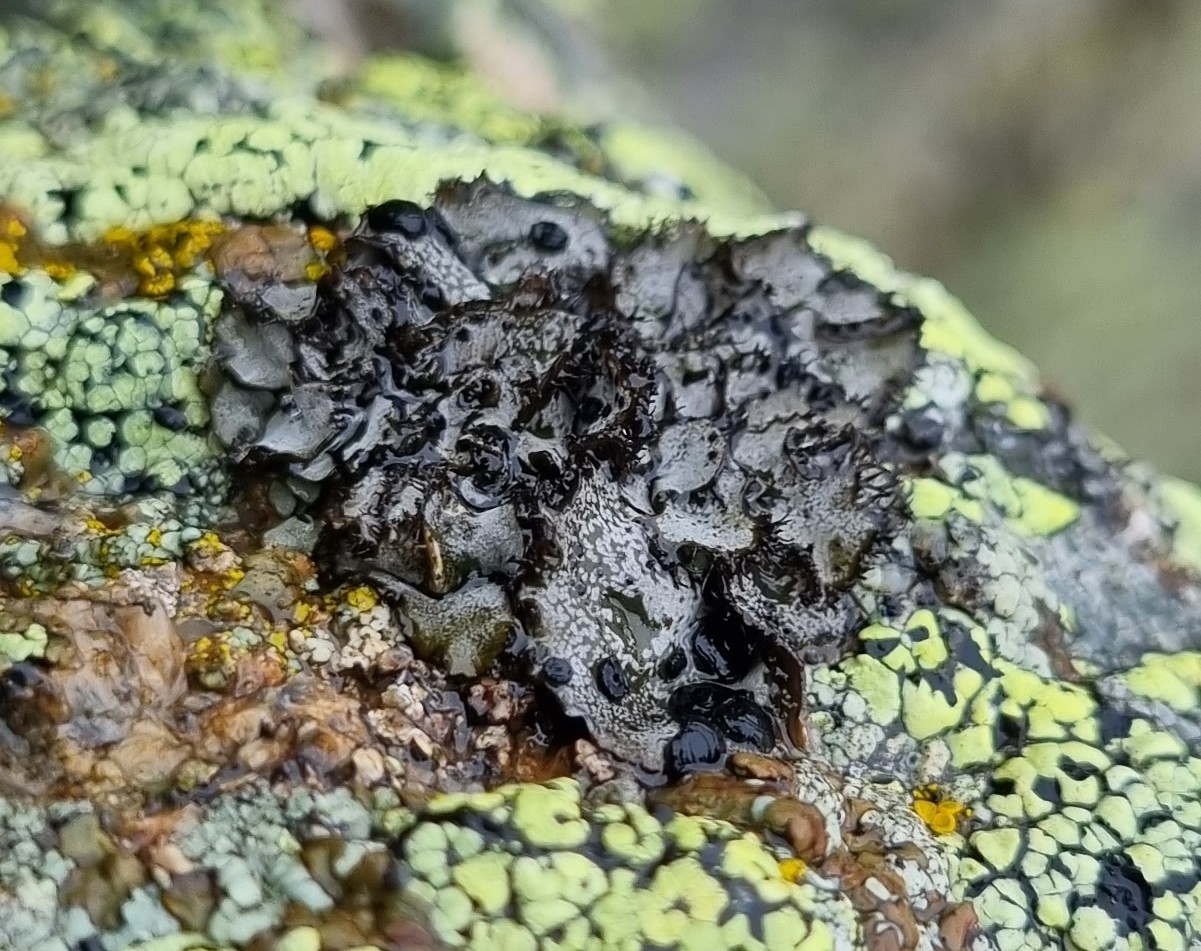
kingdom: Fungi
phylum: Ascomycota
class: Lecanoromycetes
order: Umbilicariales
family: Umbilicariaceae
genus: Umbilicaria
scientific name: Umbilicaria cylindrica
